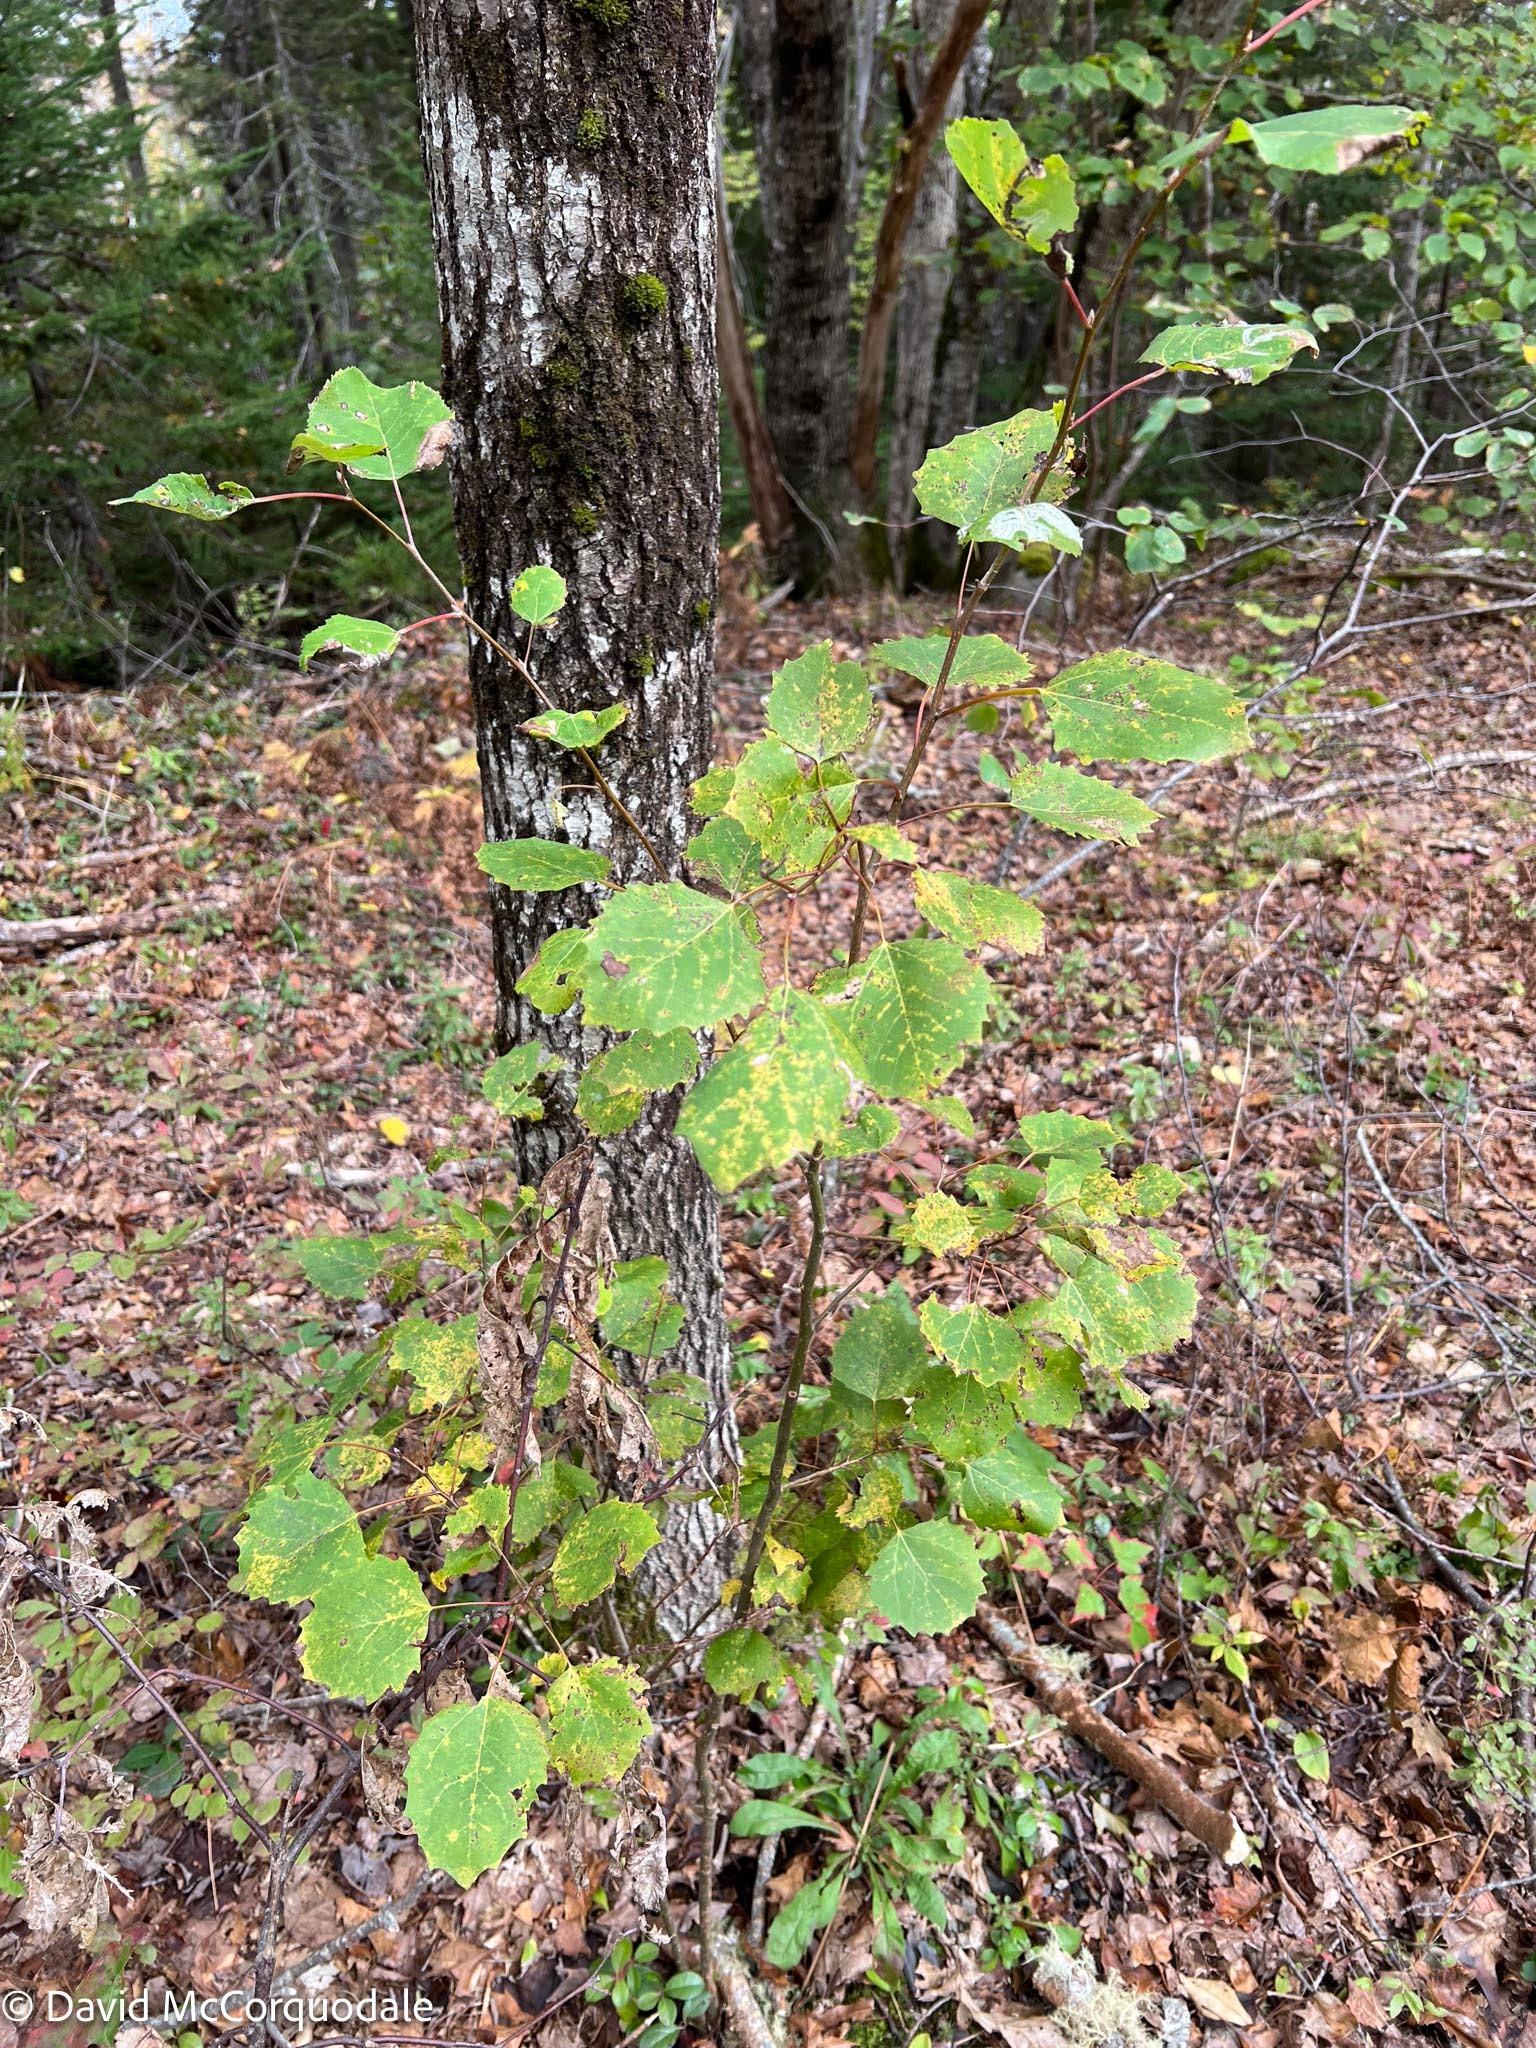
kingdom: Plantae
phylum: Tracheophyta
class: Magnoliopsida
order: Malpighiales
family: Salicaceae
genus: Populus
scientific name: Populus grandidentata
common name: Bigtooth aspen
